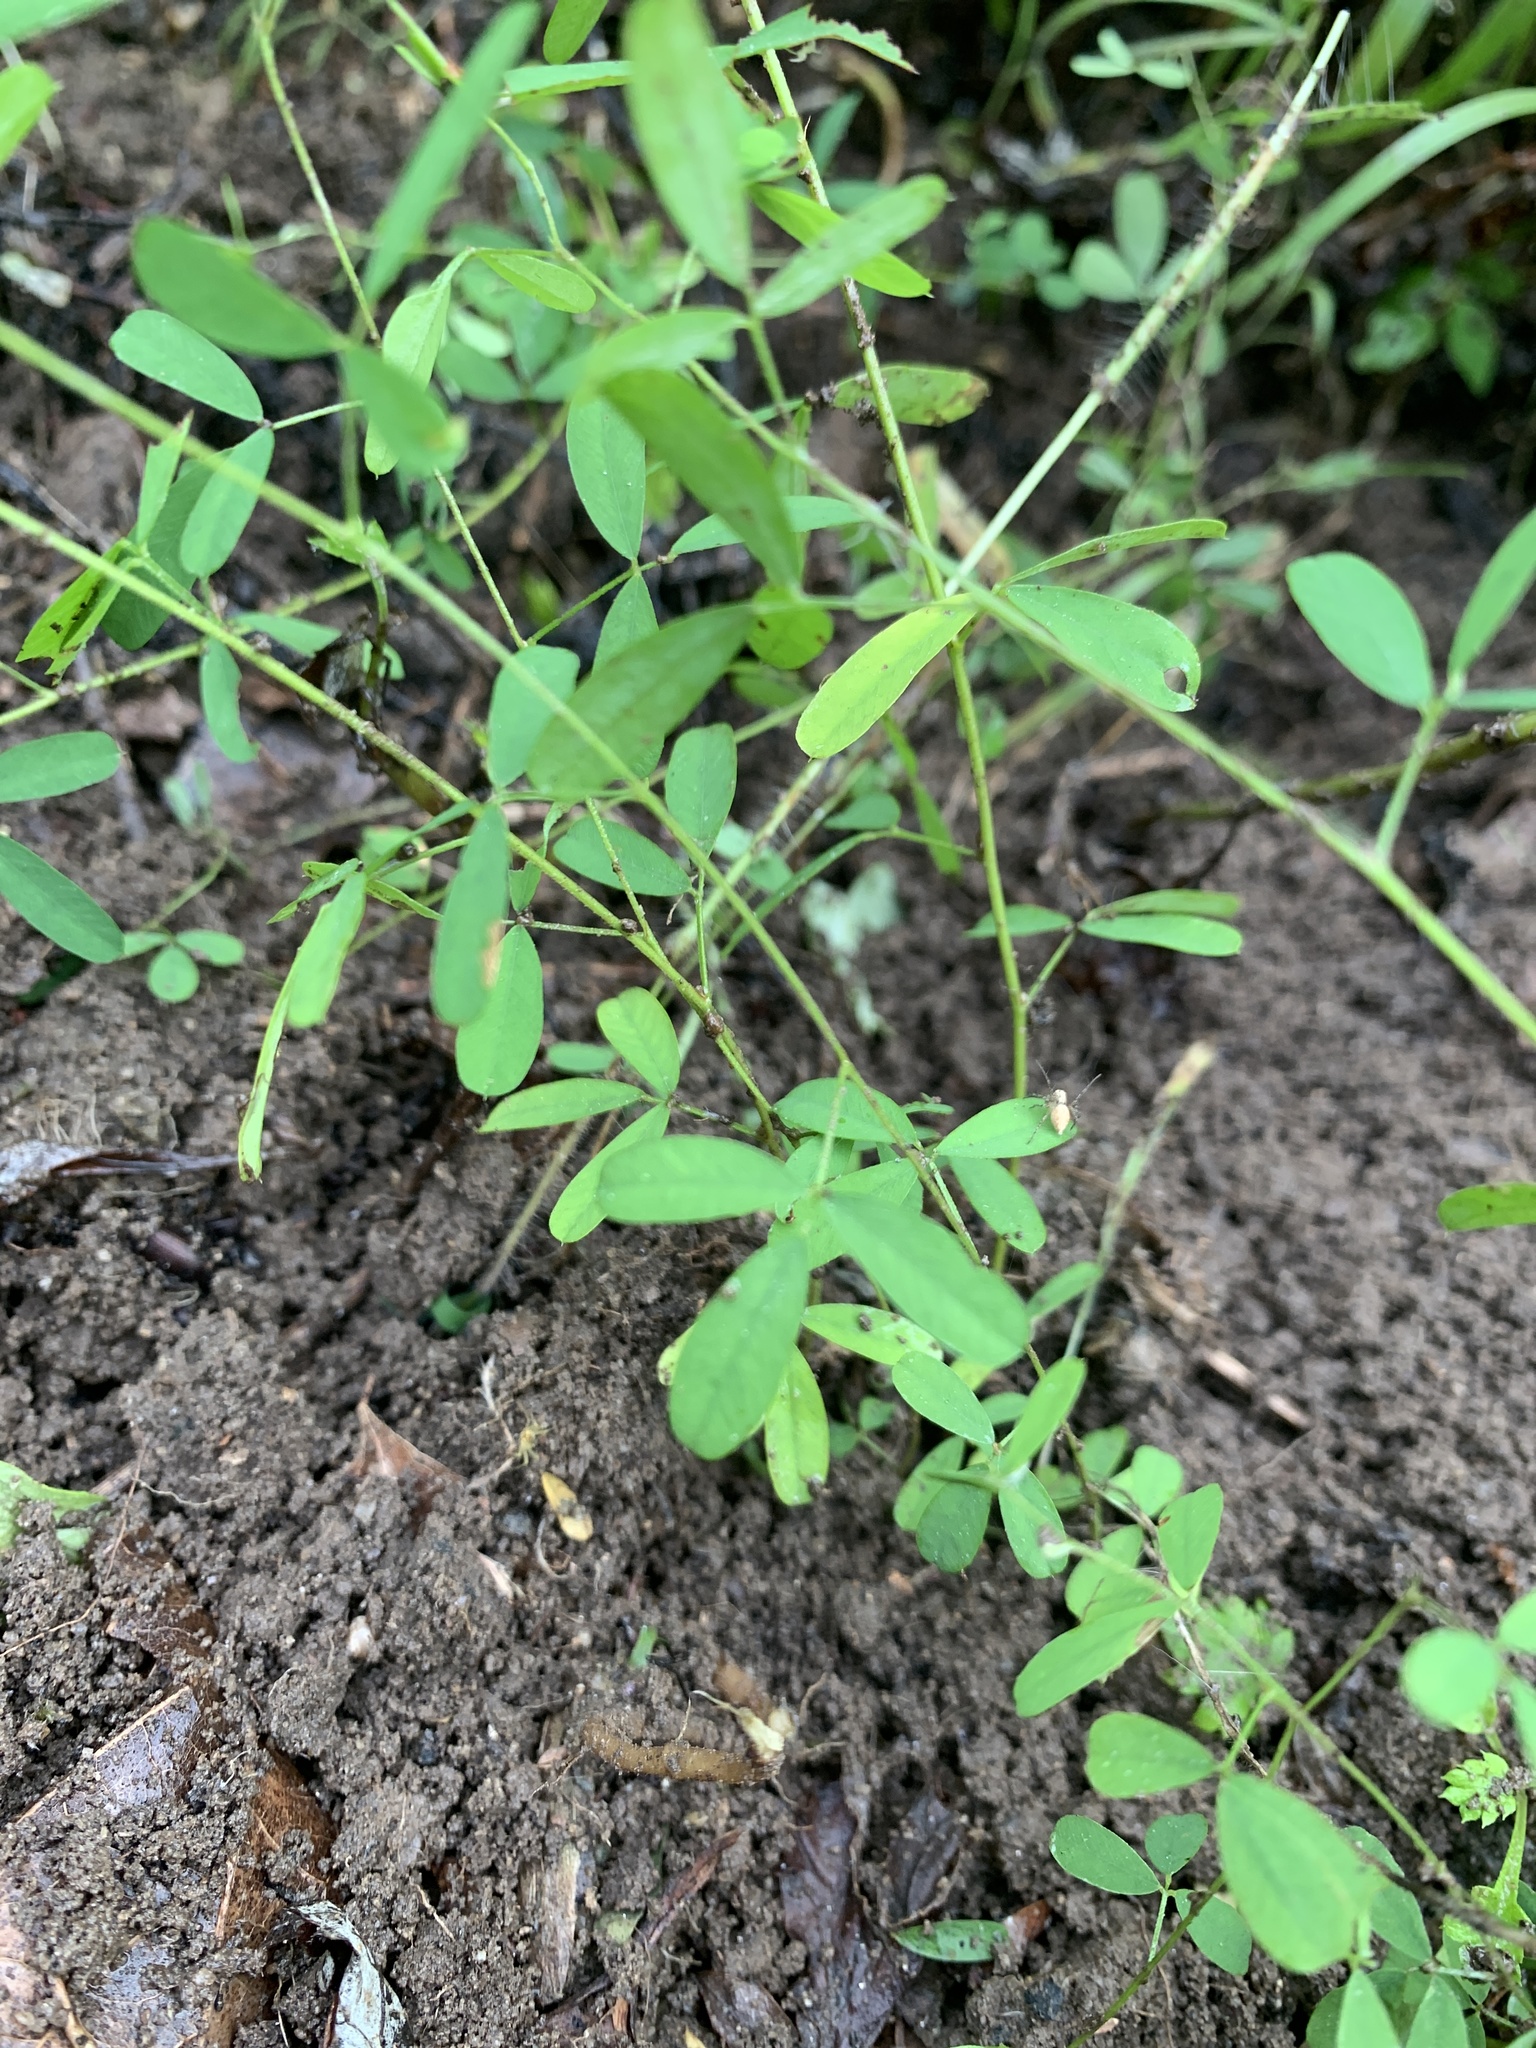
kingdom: Plantae
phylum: Tracheophyta
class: Magnoliopsida
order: Fabales
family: Fabaceae
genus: Lespedeza
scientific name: Lespedeza cuneata
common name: Chinese bush-clover
